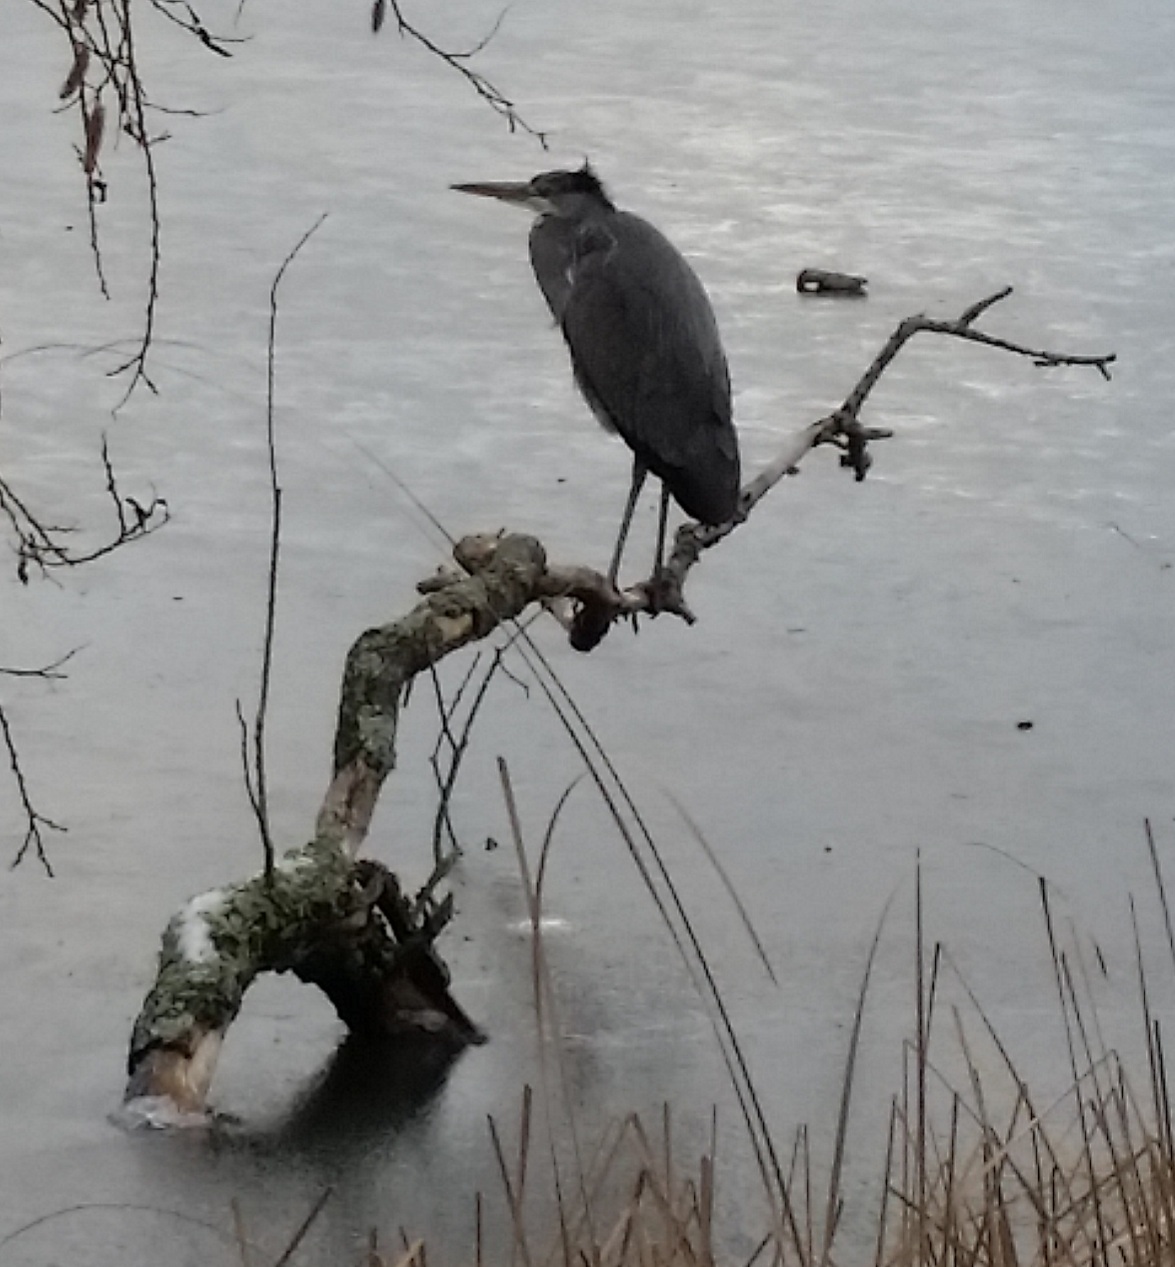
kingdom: Animalia
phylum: Chordata
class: Aves
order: Pelecaniformes
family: Ardeidae
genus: Ardea
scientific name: Ardea cinerea
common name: Grey heron
